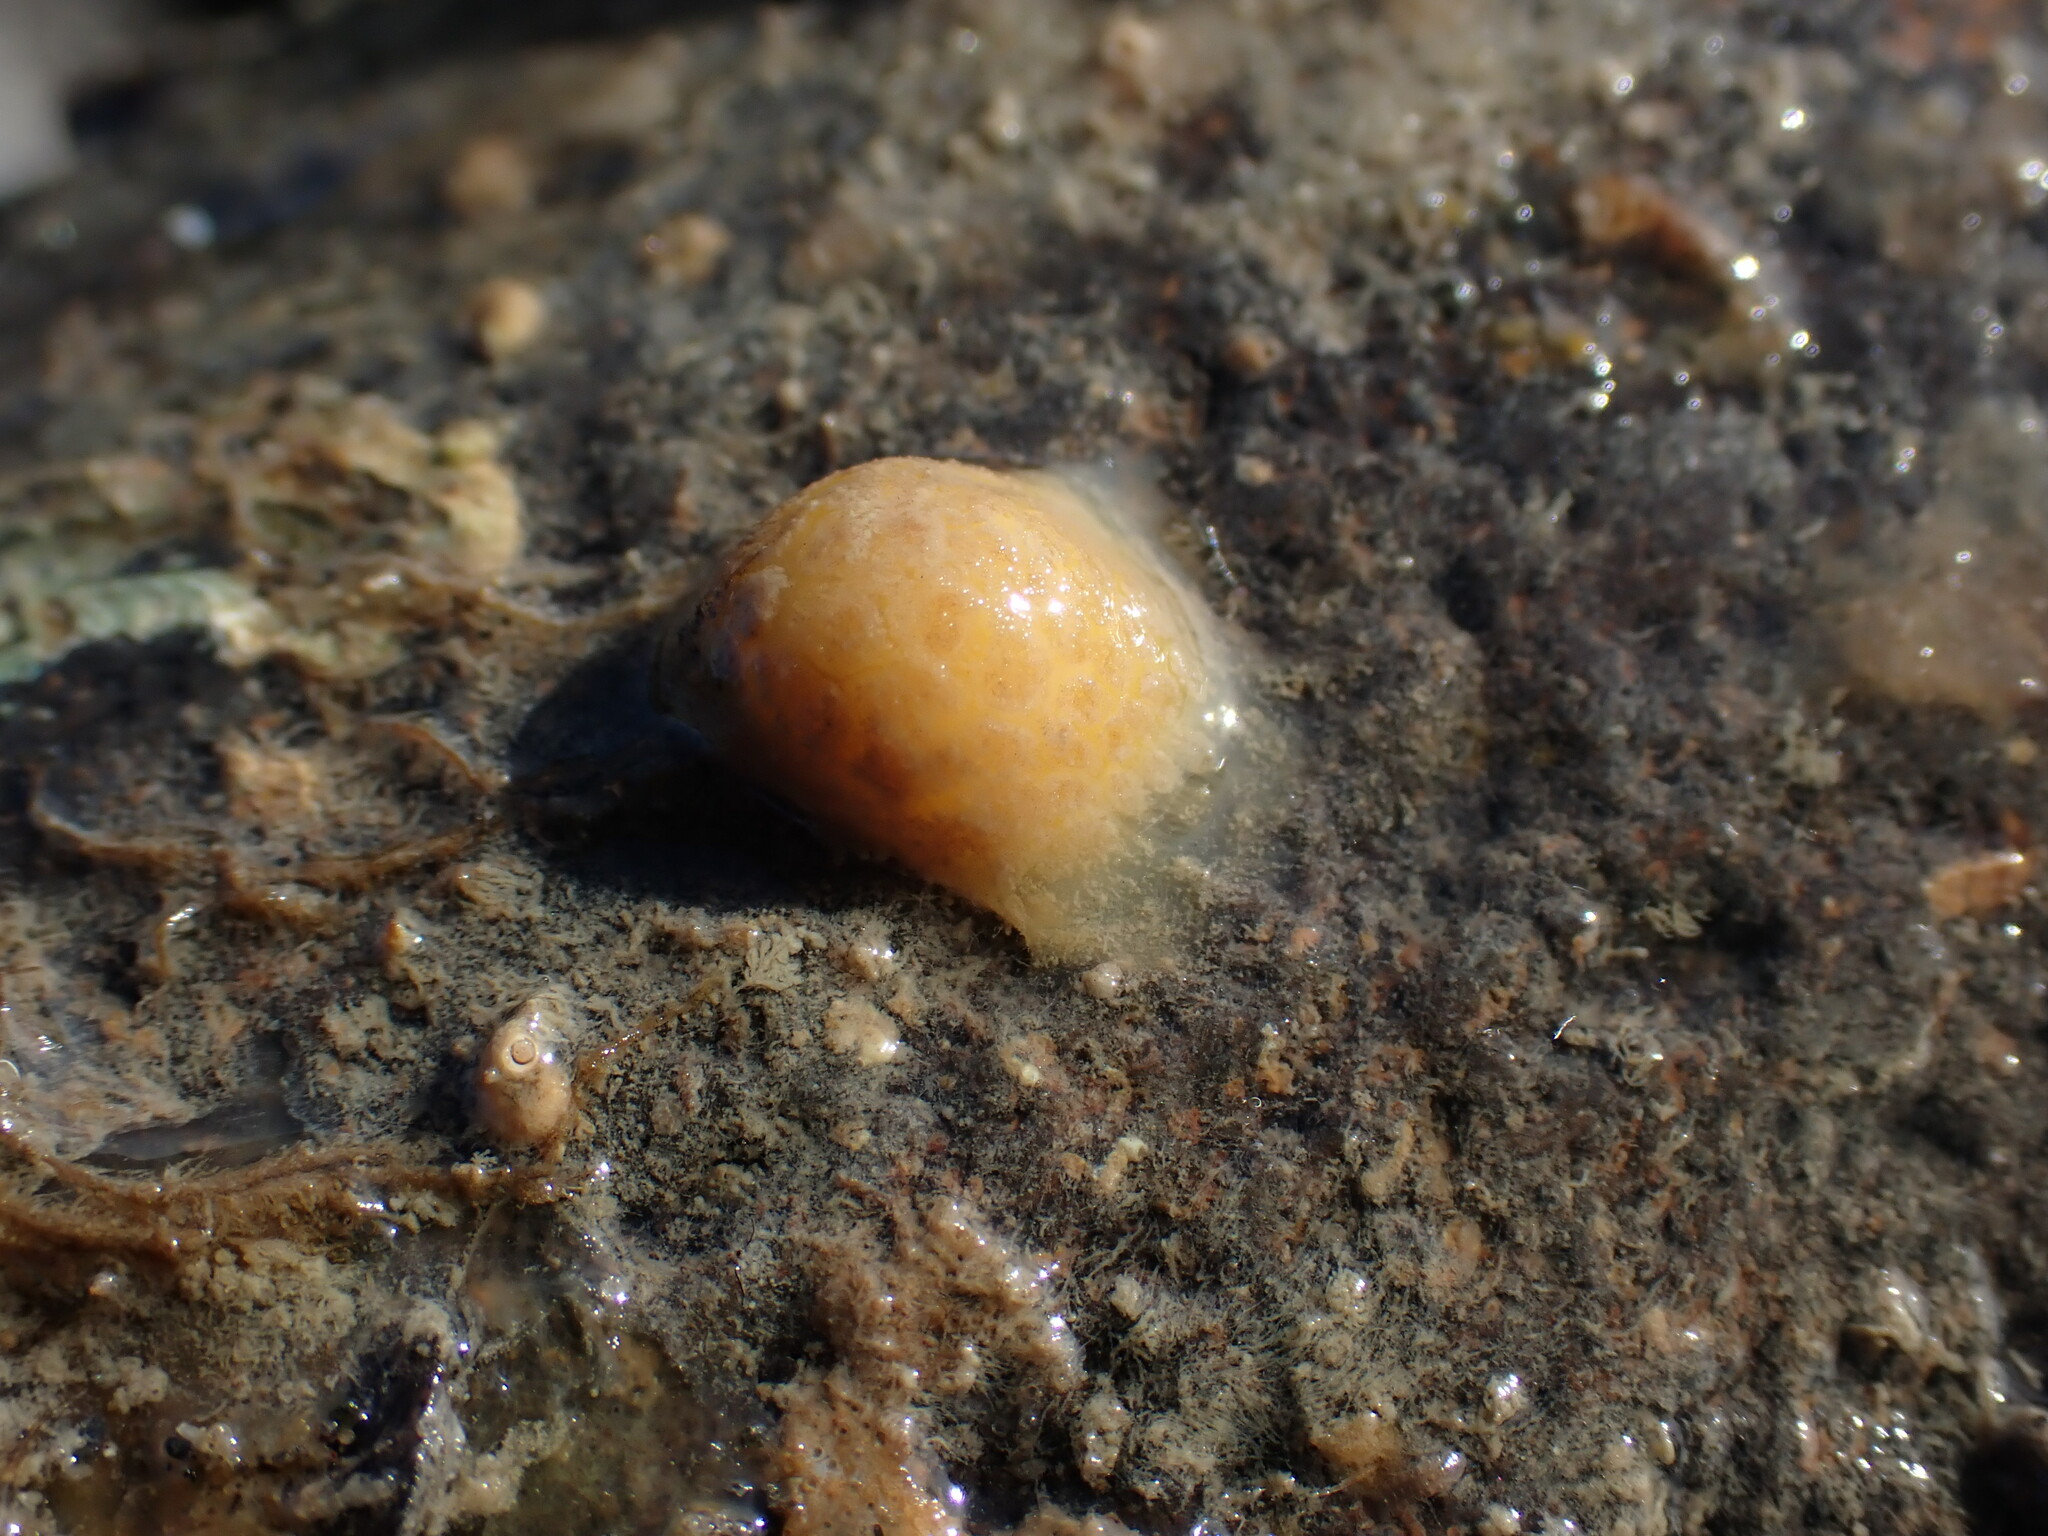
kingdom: Animalia
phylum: Porifera
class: Demospongiae
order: Tethyida
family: Tethyidae
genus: Tethya
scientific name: Tethya stolonifera
